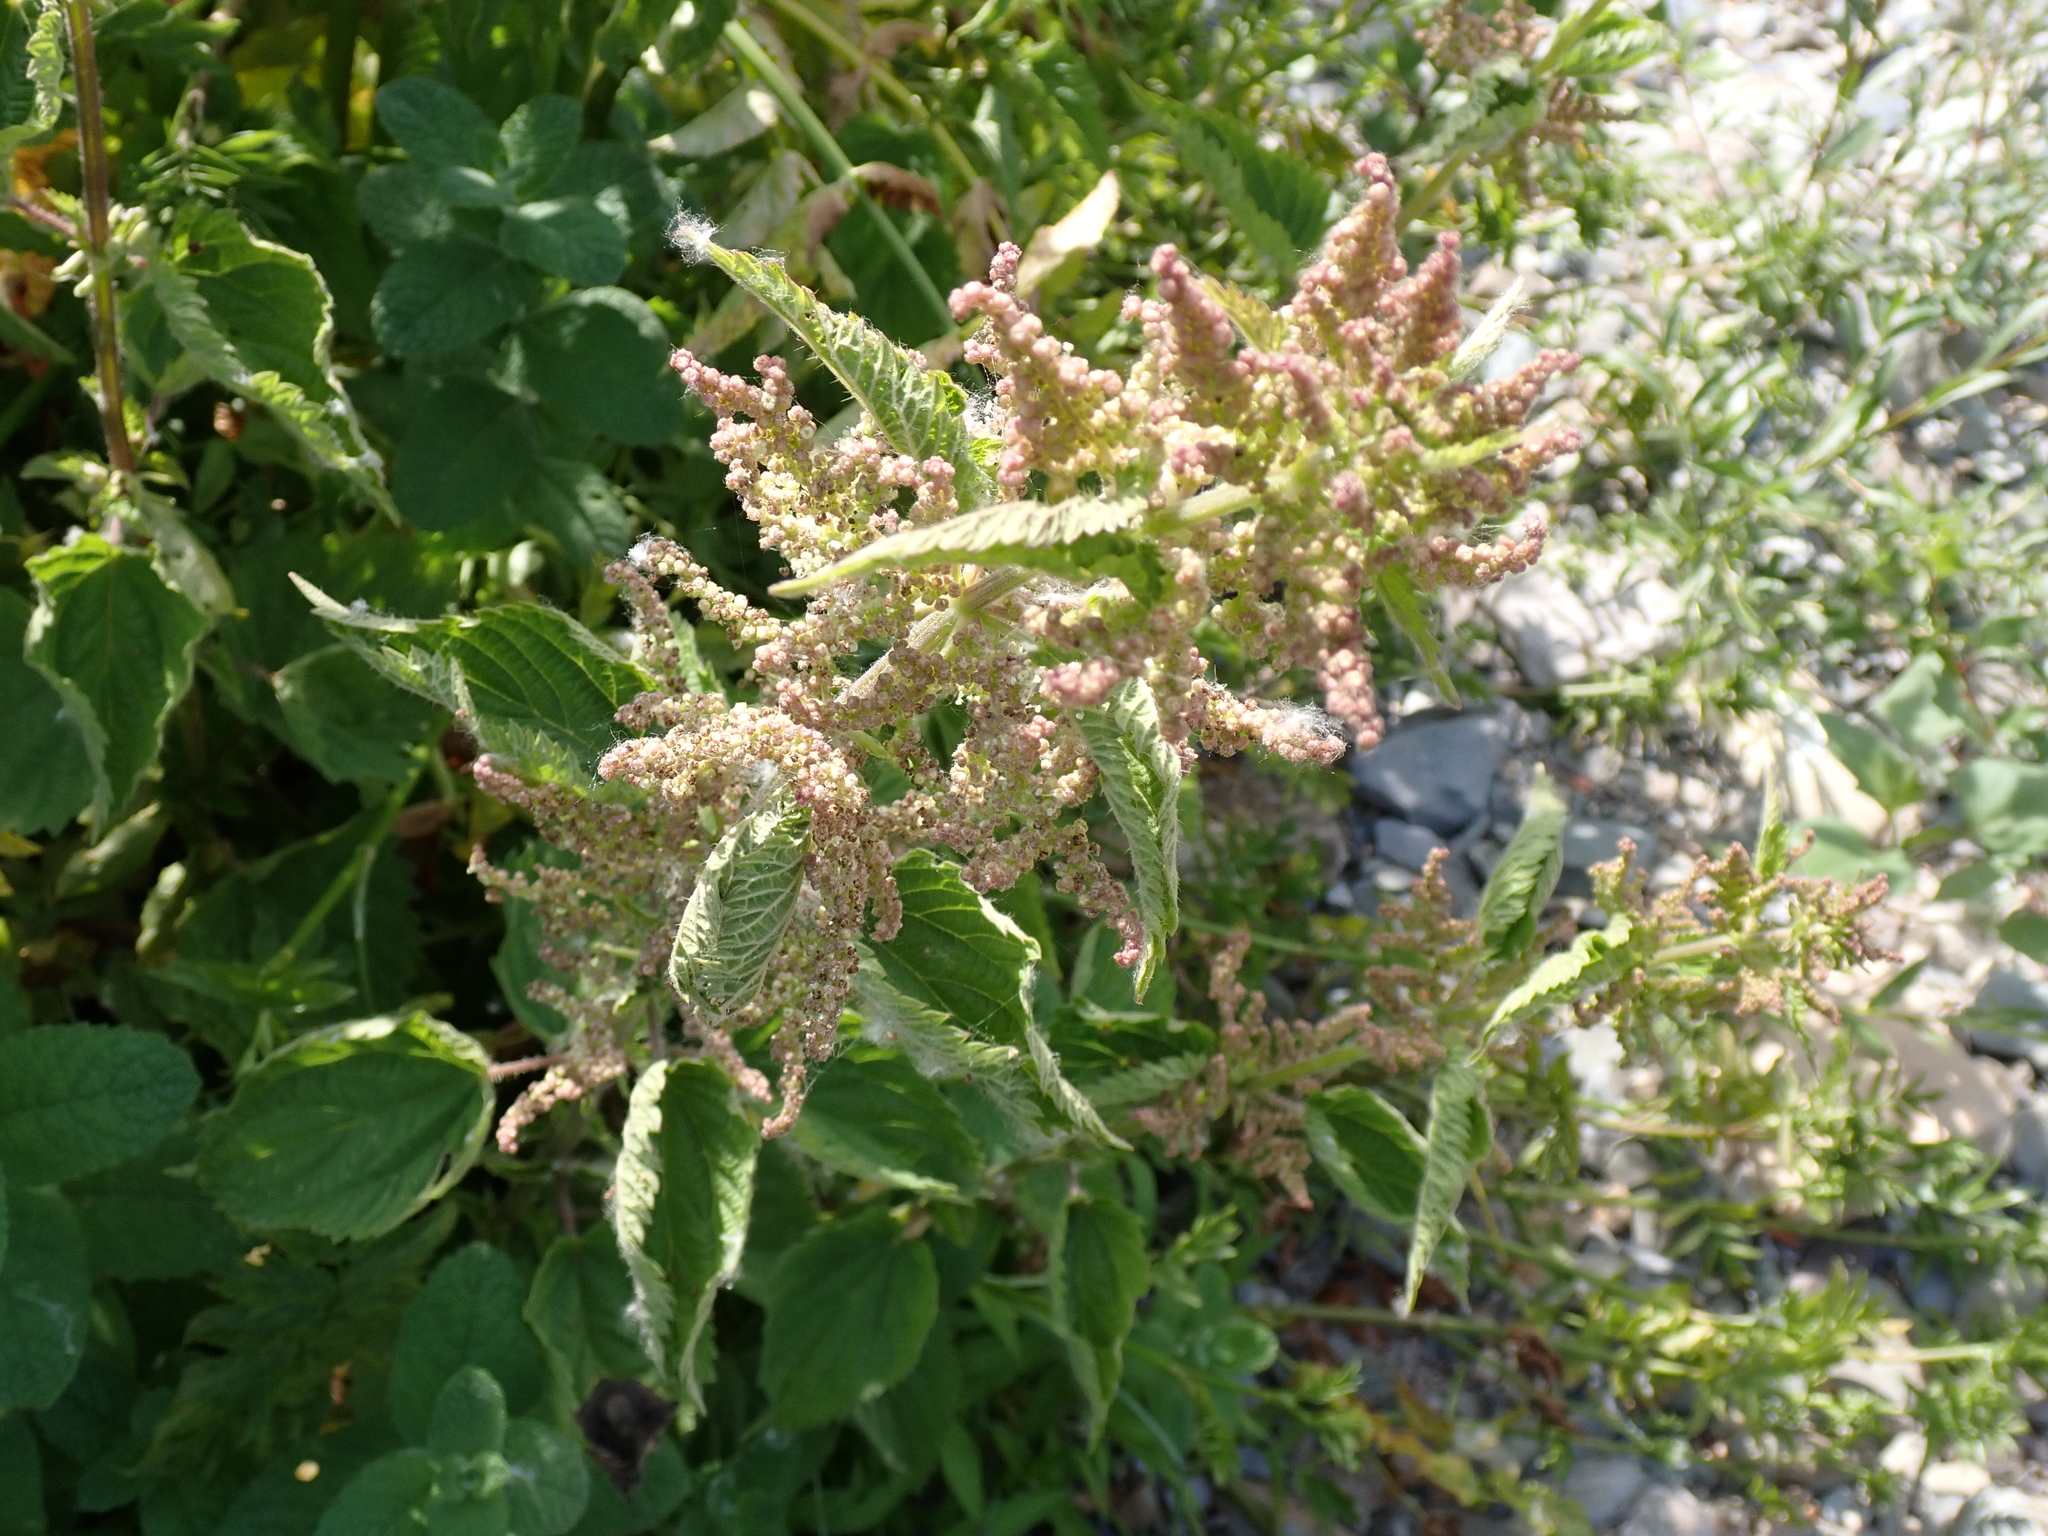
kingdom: Plantae
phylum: Tracheophyta
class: Magnoliopsida
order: Rosales
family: Urticaceae
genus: Urtica
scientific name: Urtica dioica
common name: Common nettle
